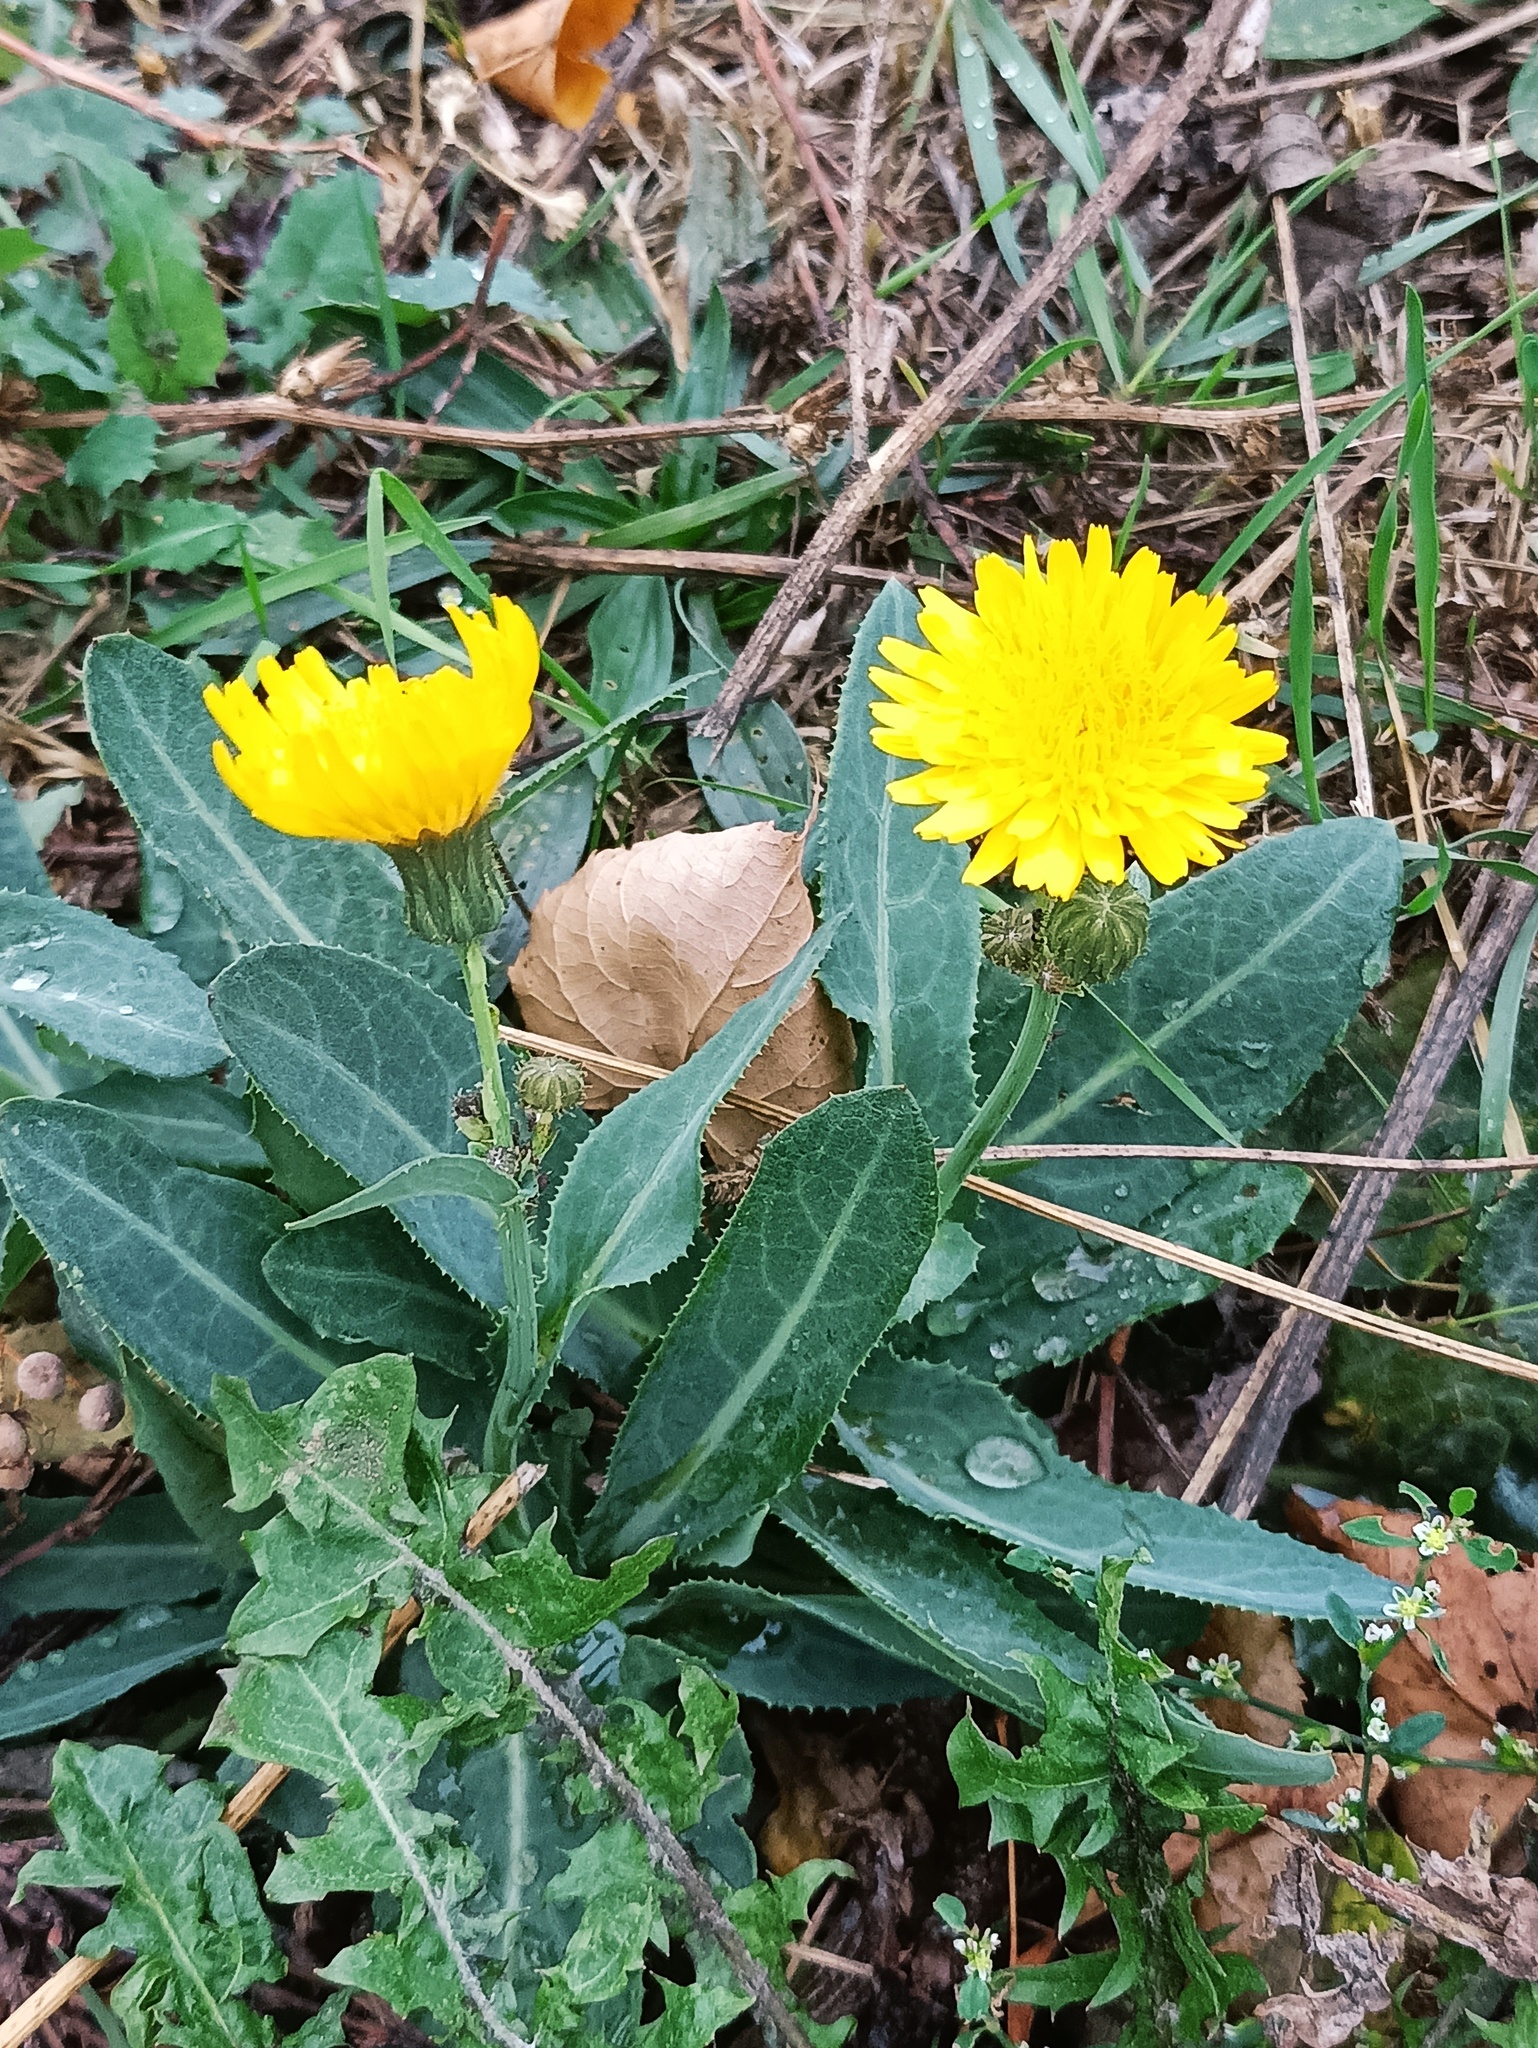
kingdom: Plantae
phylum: Tracheophyta
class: Magnoliopsida
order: Asterales
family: Asteraceae
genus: Sonchus
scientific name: Sonchus arvensis
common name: Perennial sow-thistle
